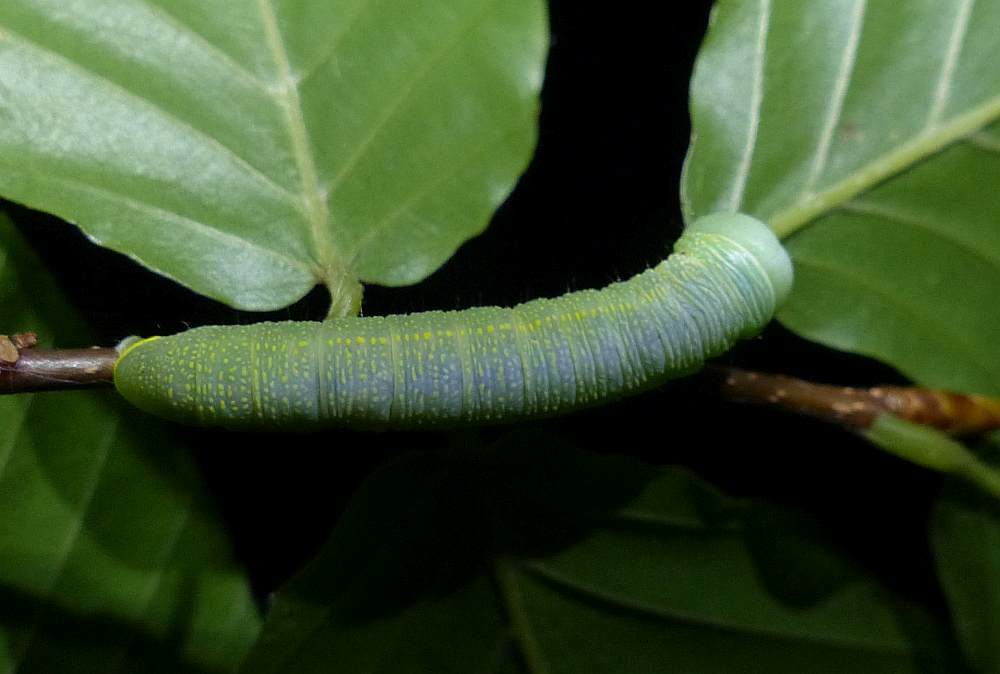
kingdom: Animalia
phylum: Arthropoda
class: Insecta
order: Lepidoptera
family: Notodontidae
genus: Nadata
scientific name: Nadata gibbosa
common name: White-dotted prominent
